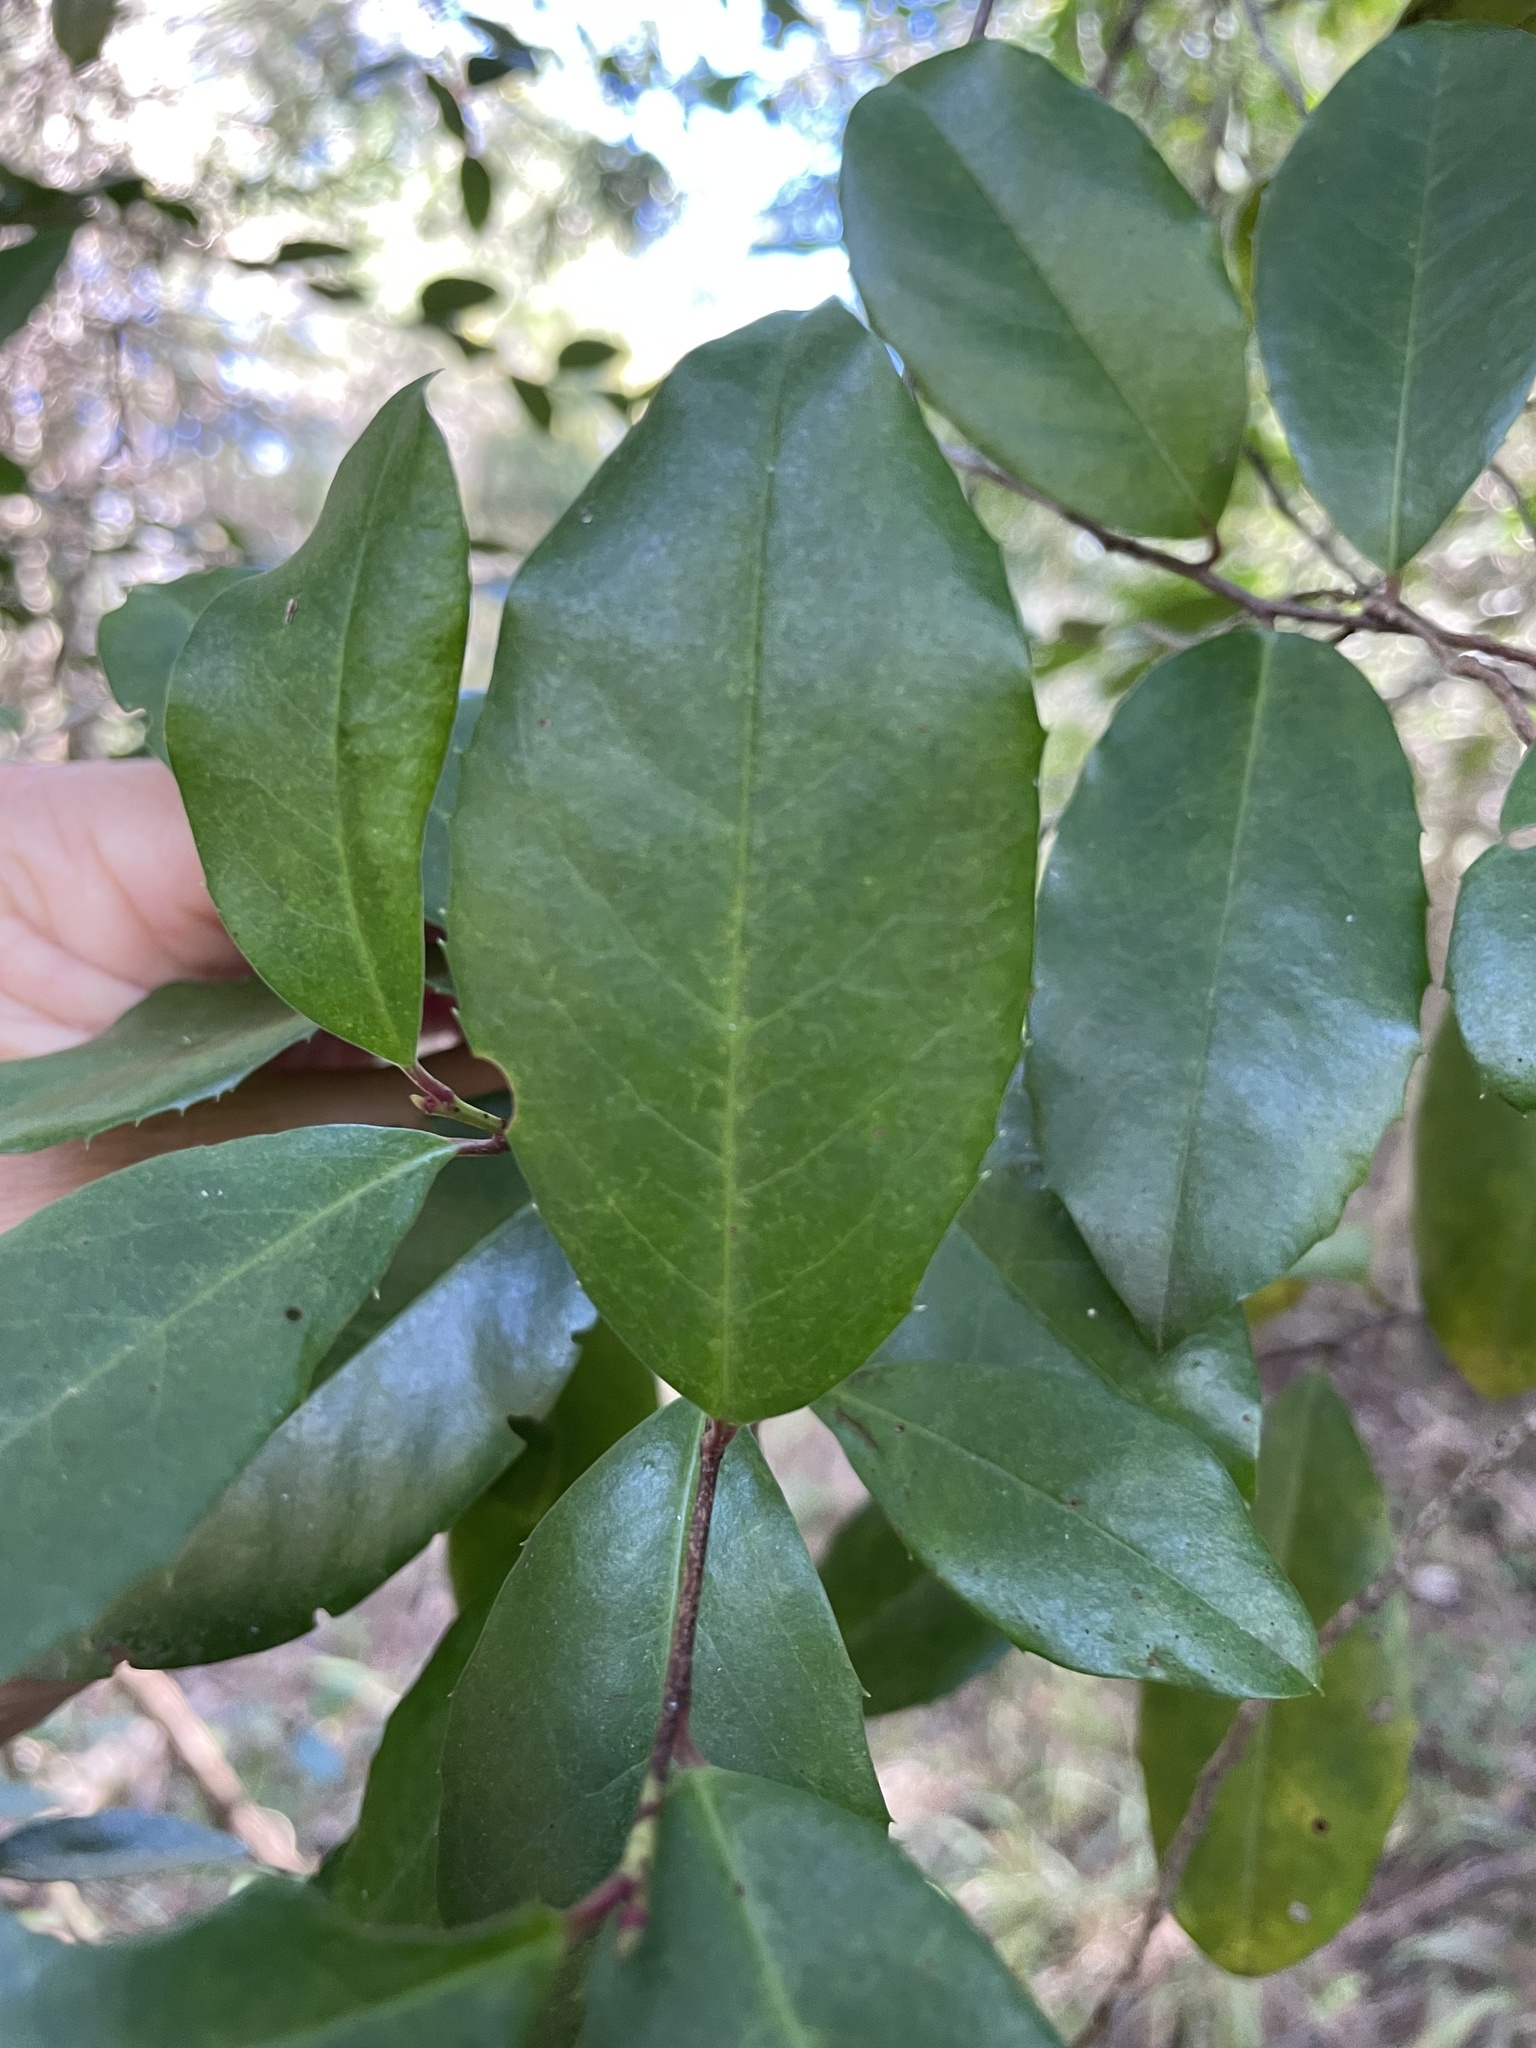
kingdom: Plantae
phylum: Tracheophyta
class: Magnoliopsida
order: Rosales
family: Rosaceae
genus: Prunus
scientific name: Prunus caroliniana
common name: Carolina laurel cherry
